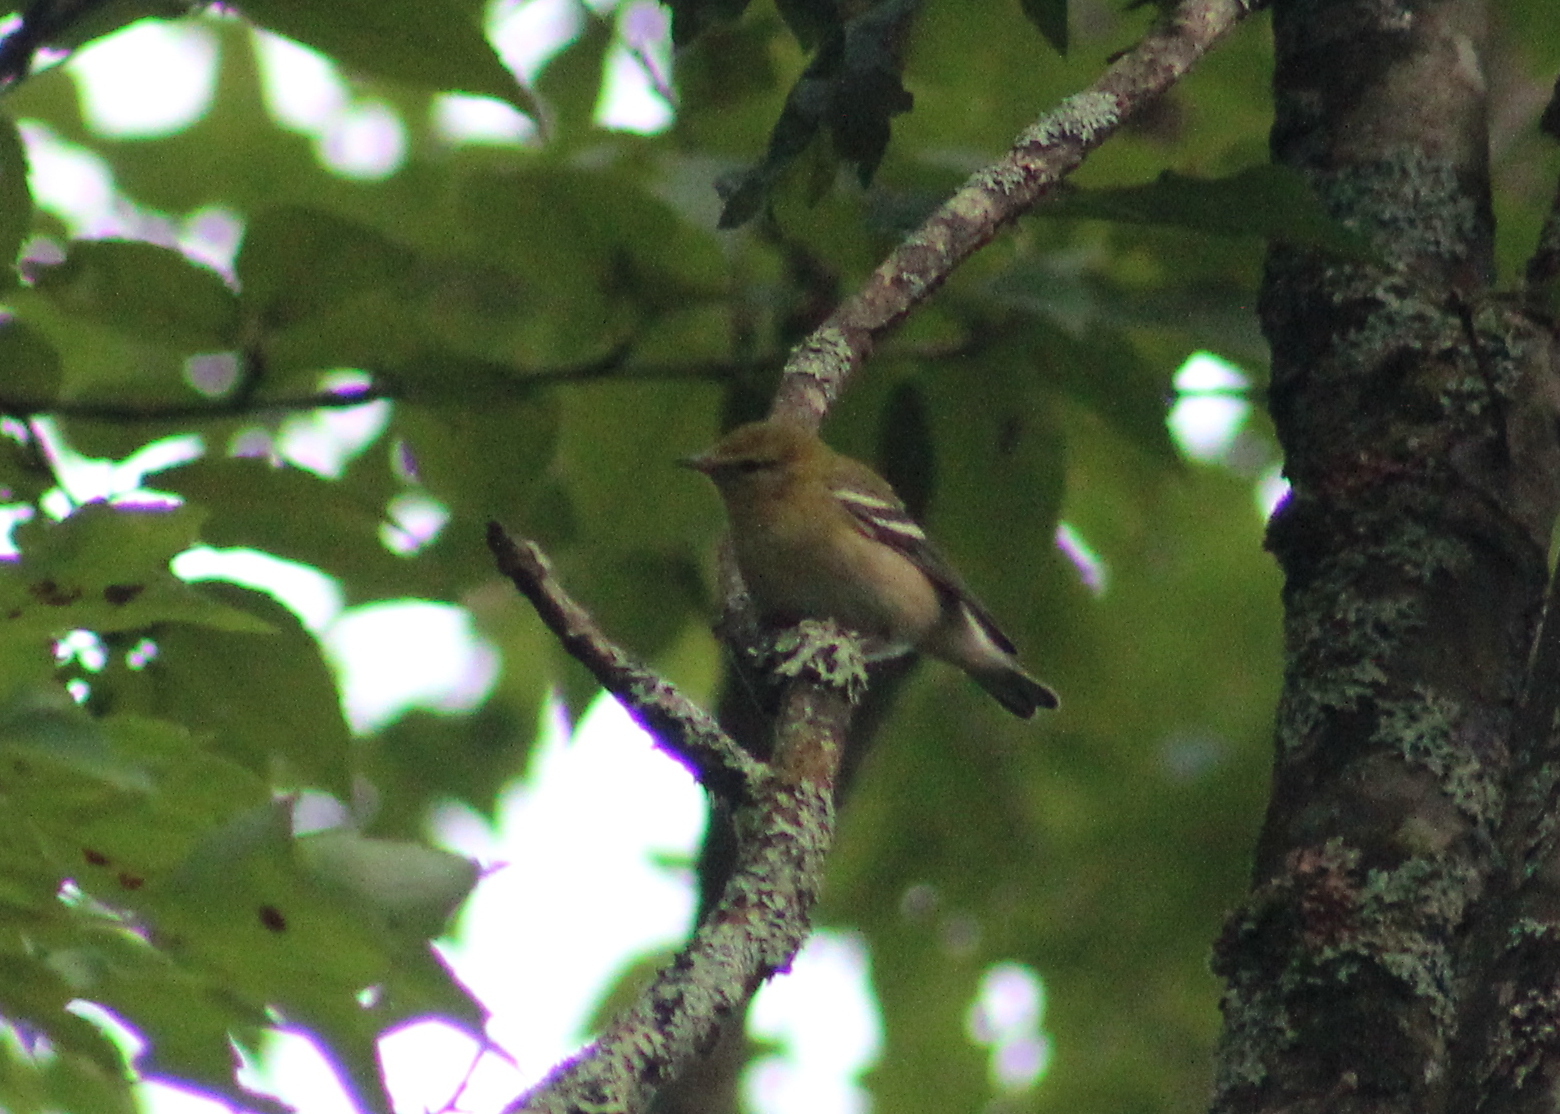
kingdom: Animalia
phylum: Chordata
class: Aves
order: Passeriformes
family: Parulidae
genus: Setophaga
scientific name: Setophaga castanea
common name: Bay-breasted warbler
